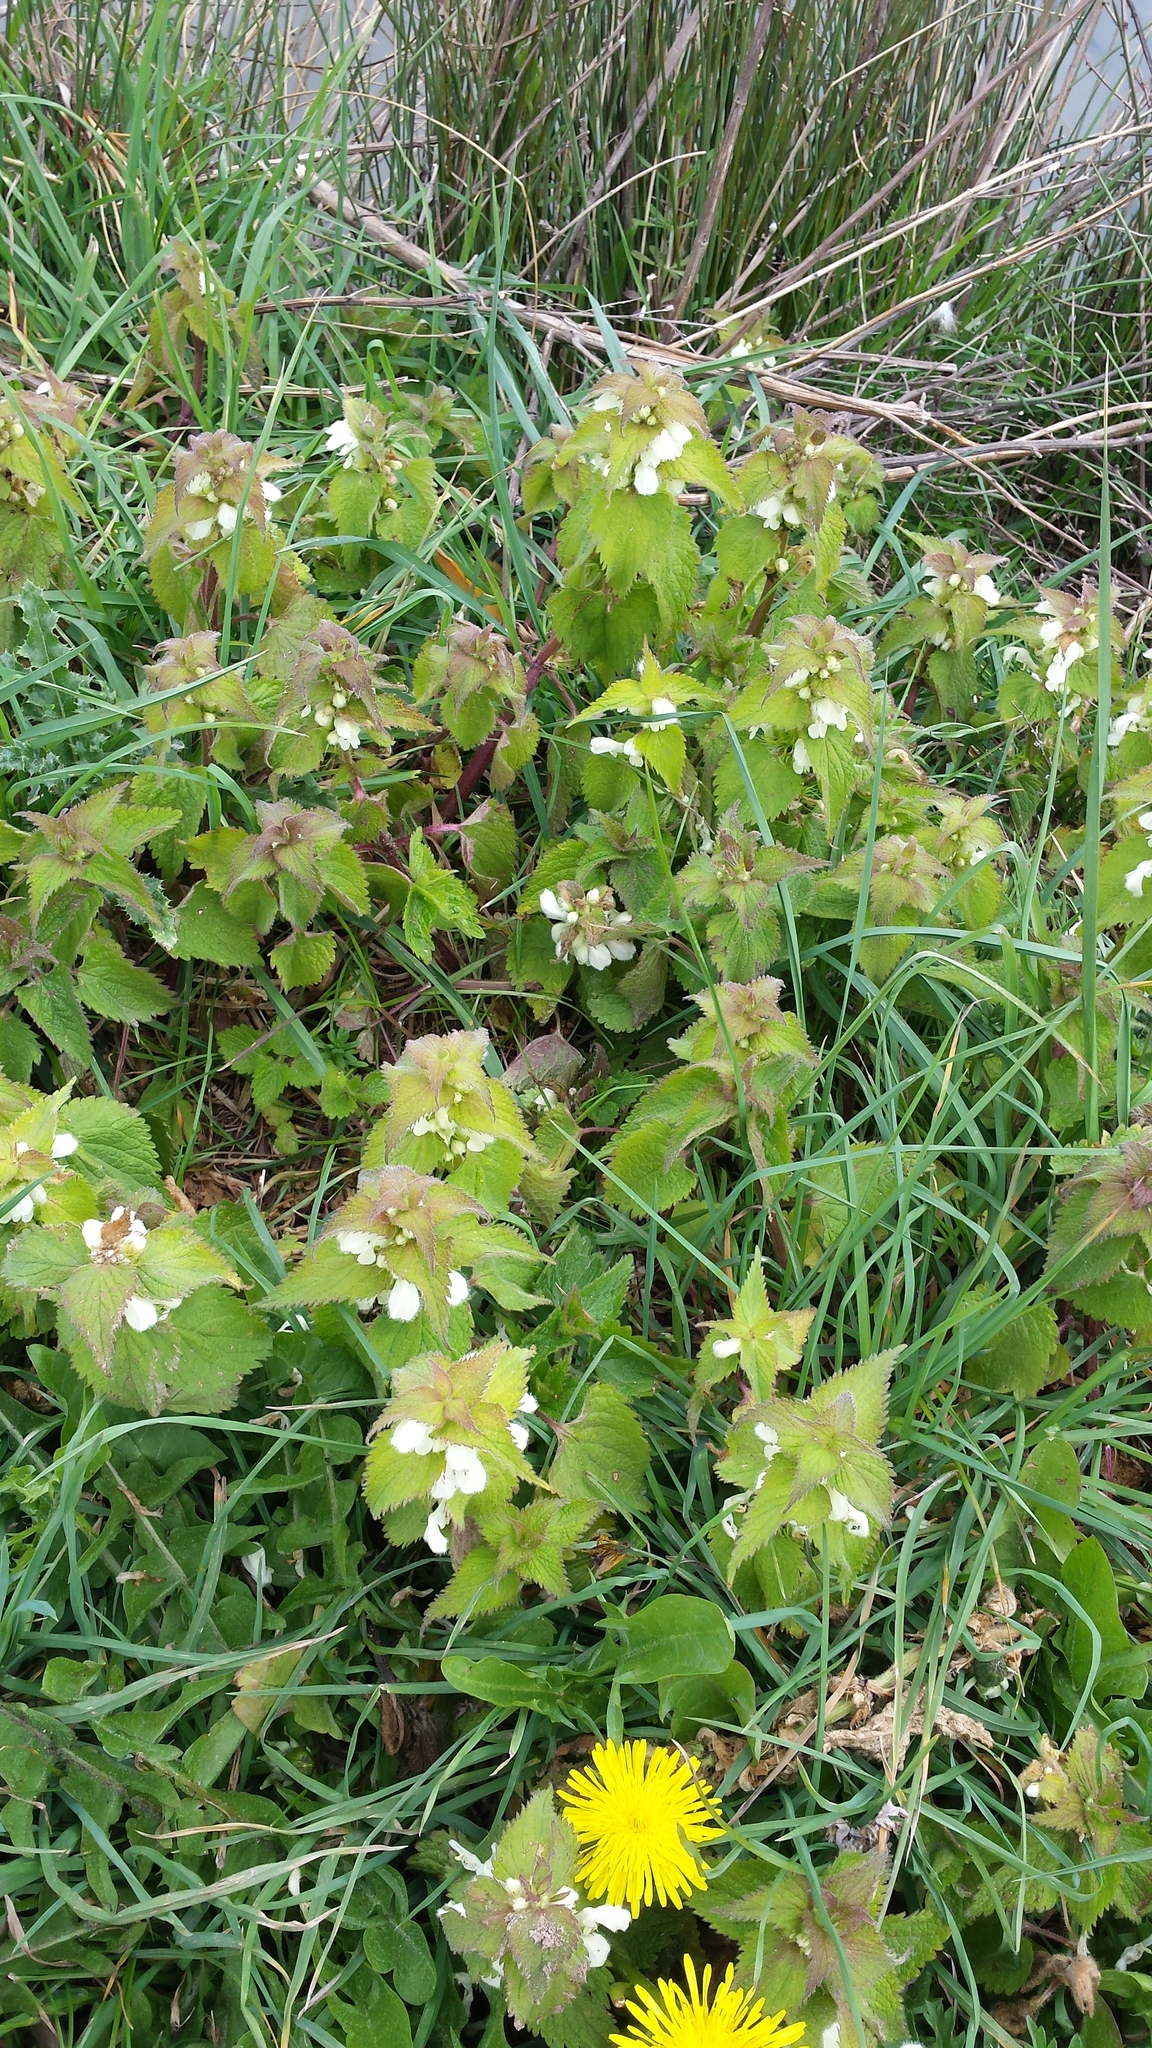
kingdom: Plantae
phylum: Tracheophyta
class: Magnoliopsida
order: Lamiales
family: Lamiaceae
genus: Lamium
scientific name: Lamium album
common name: White dead-nettle
